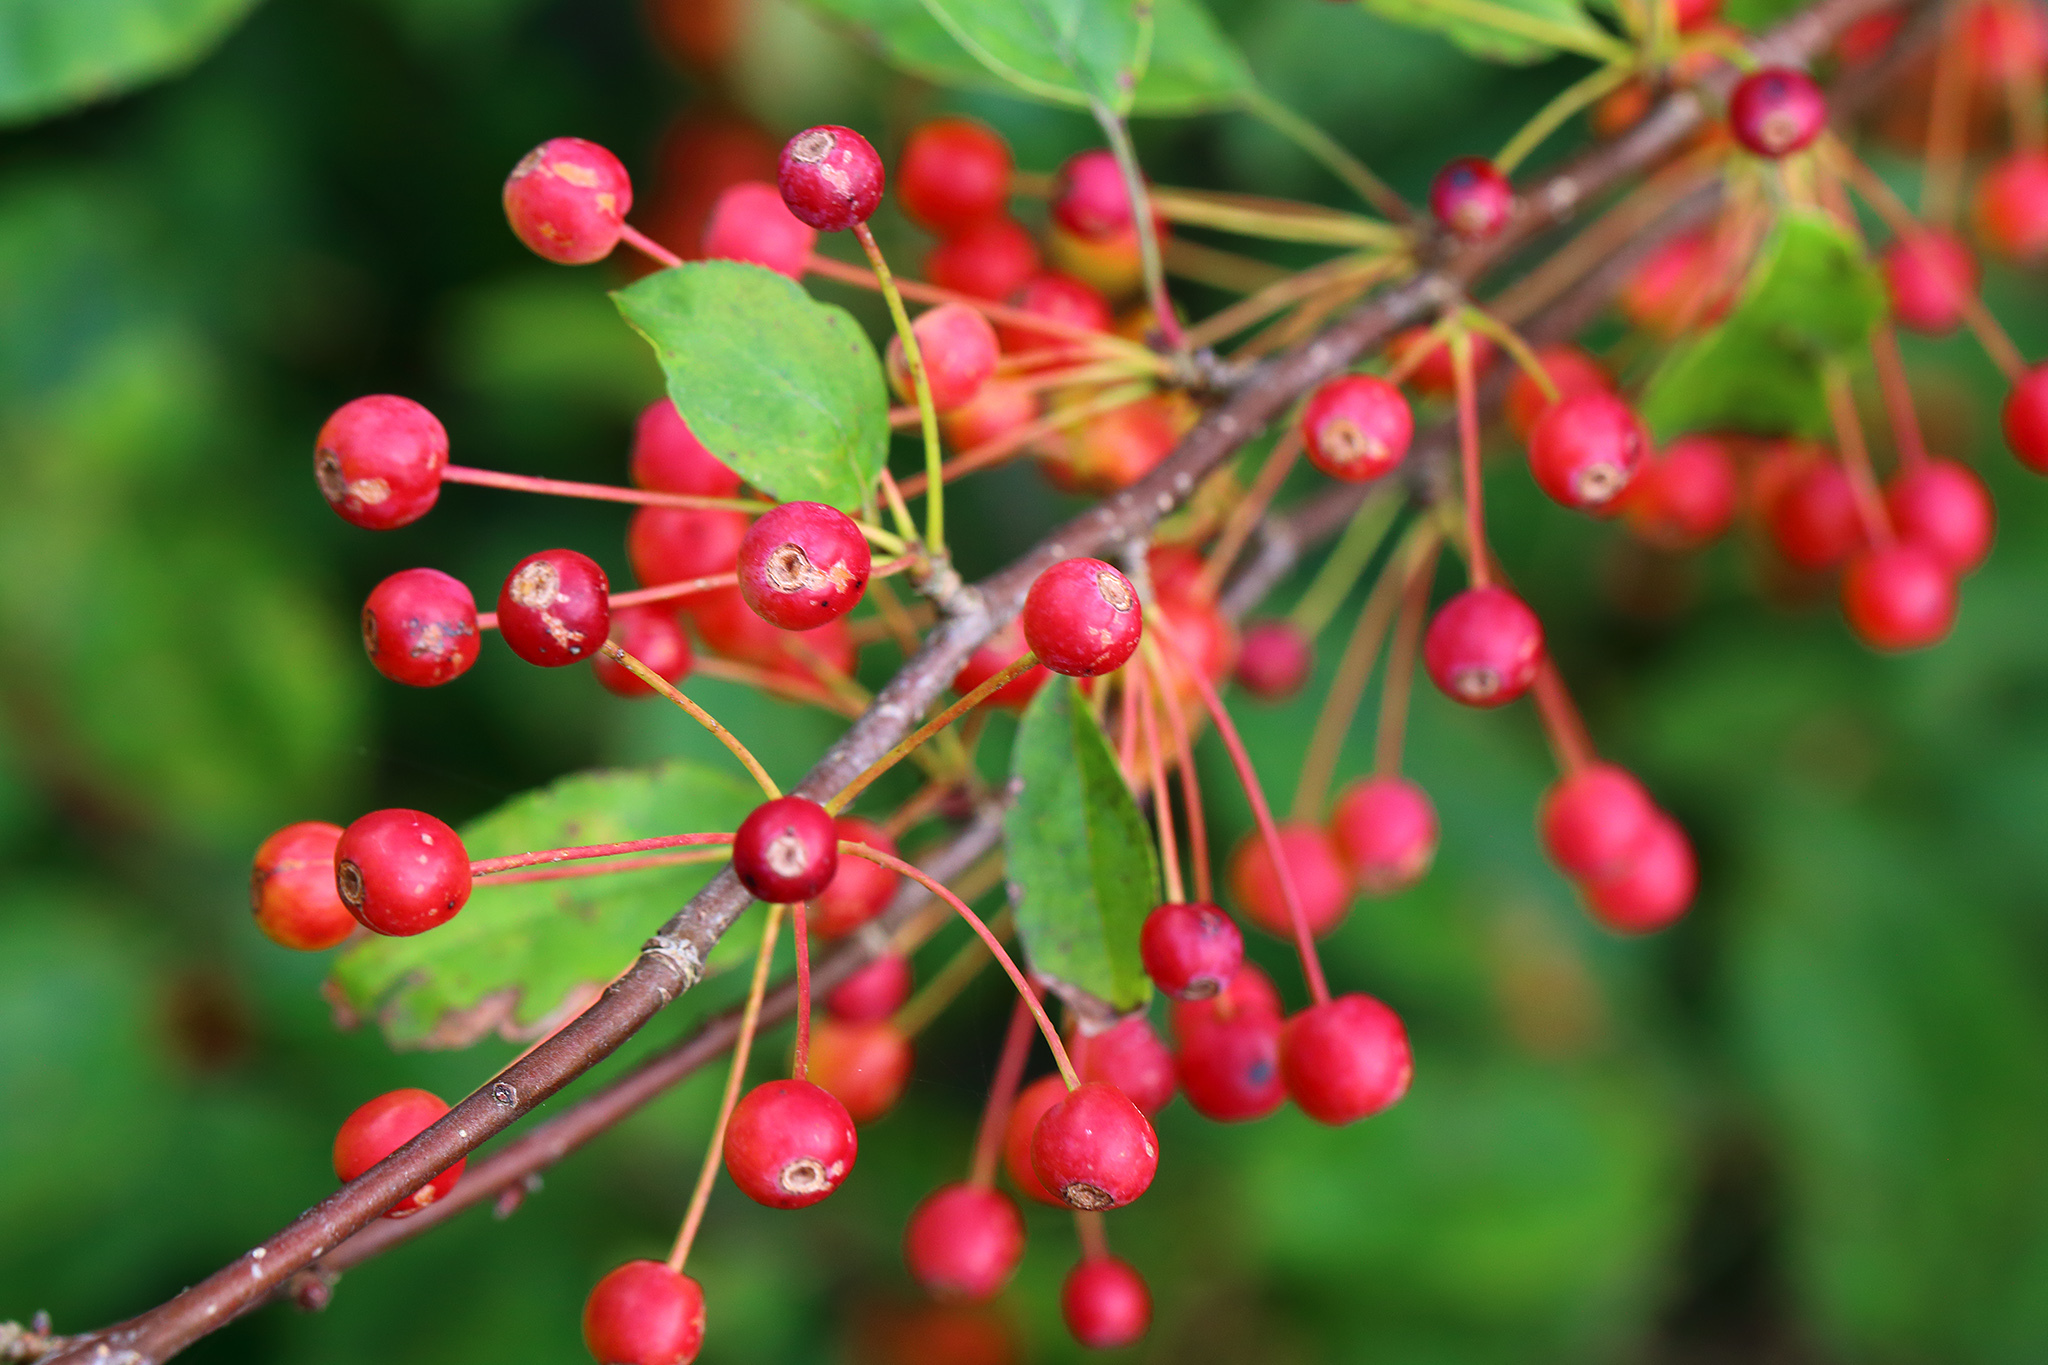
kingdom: Plantae
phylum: Tracheophyta
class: Magnoliopsida
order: Rosales
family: Rosaceae
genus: Malus
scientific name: Malus baccata
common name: Siberian crab
